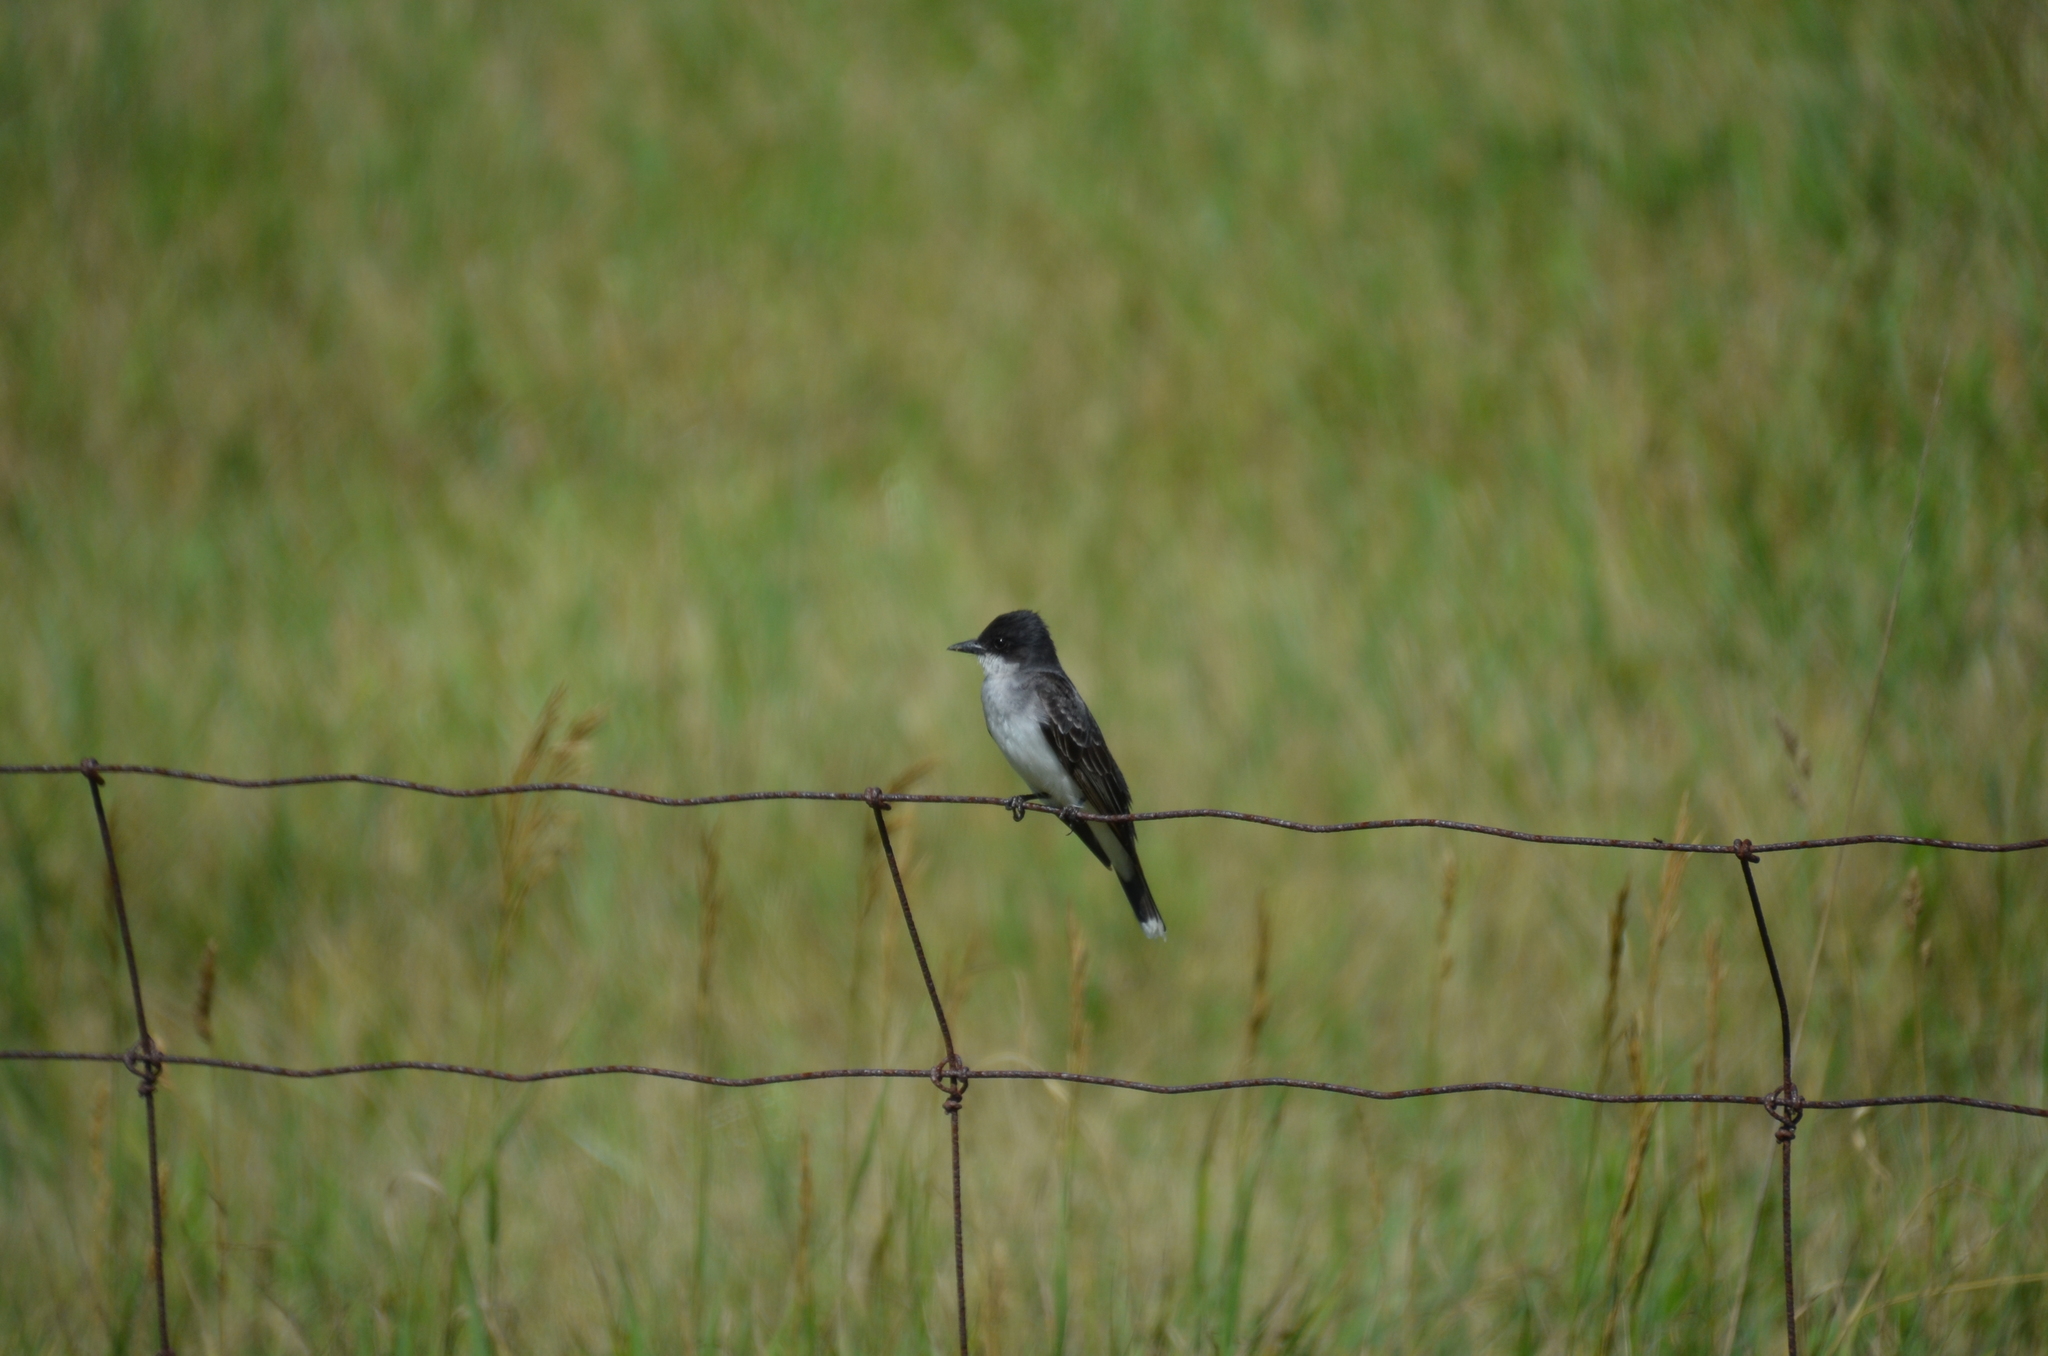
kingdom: Animalia
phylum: Chordata
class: Aves
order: Passeriformes
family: Tyrannidae
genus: Tyrannus
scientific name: Tyrannus tyrannus
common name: Eastern kingbird
